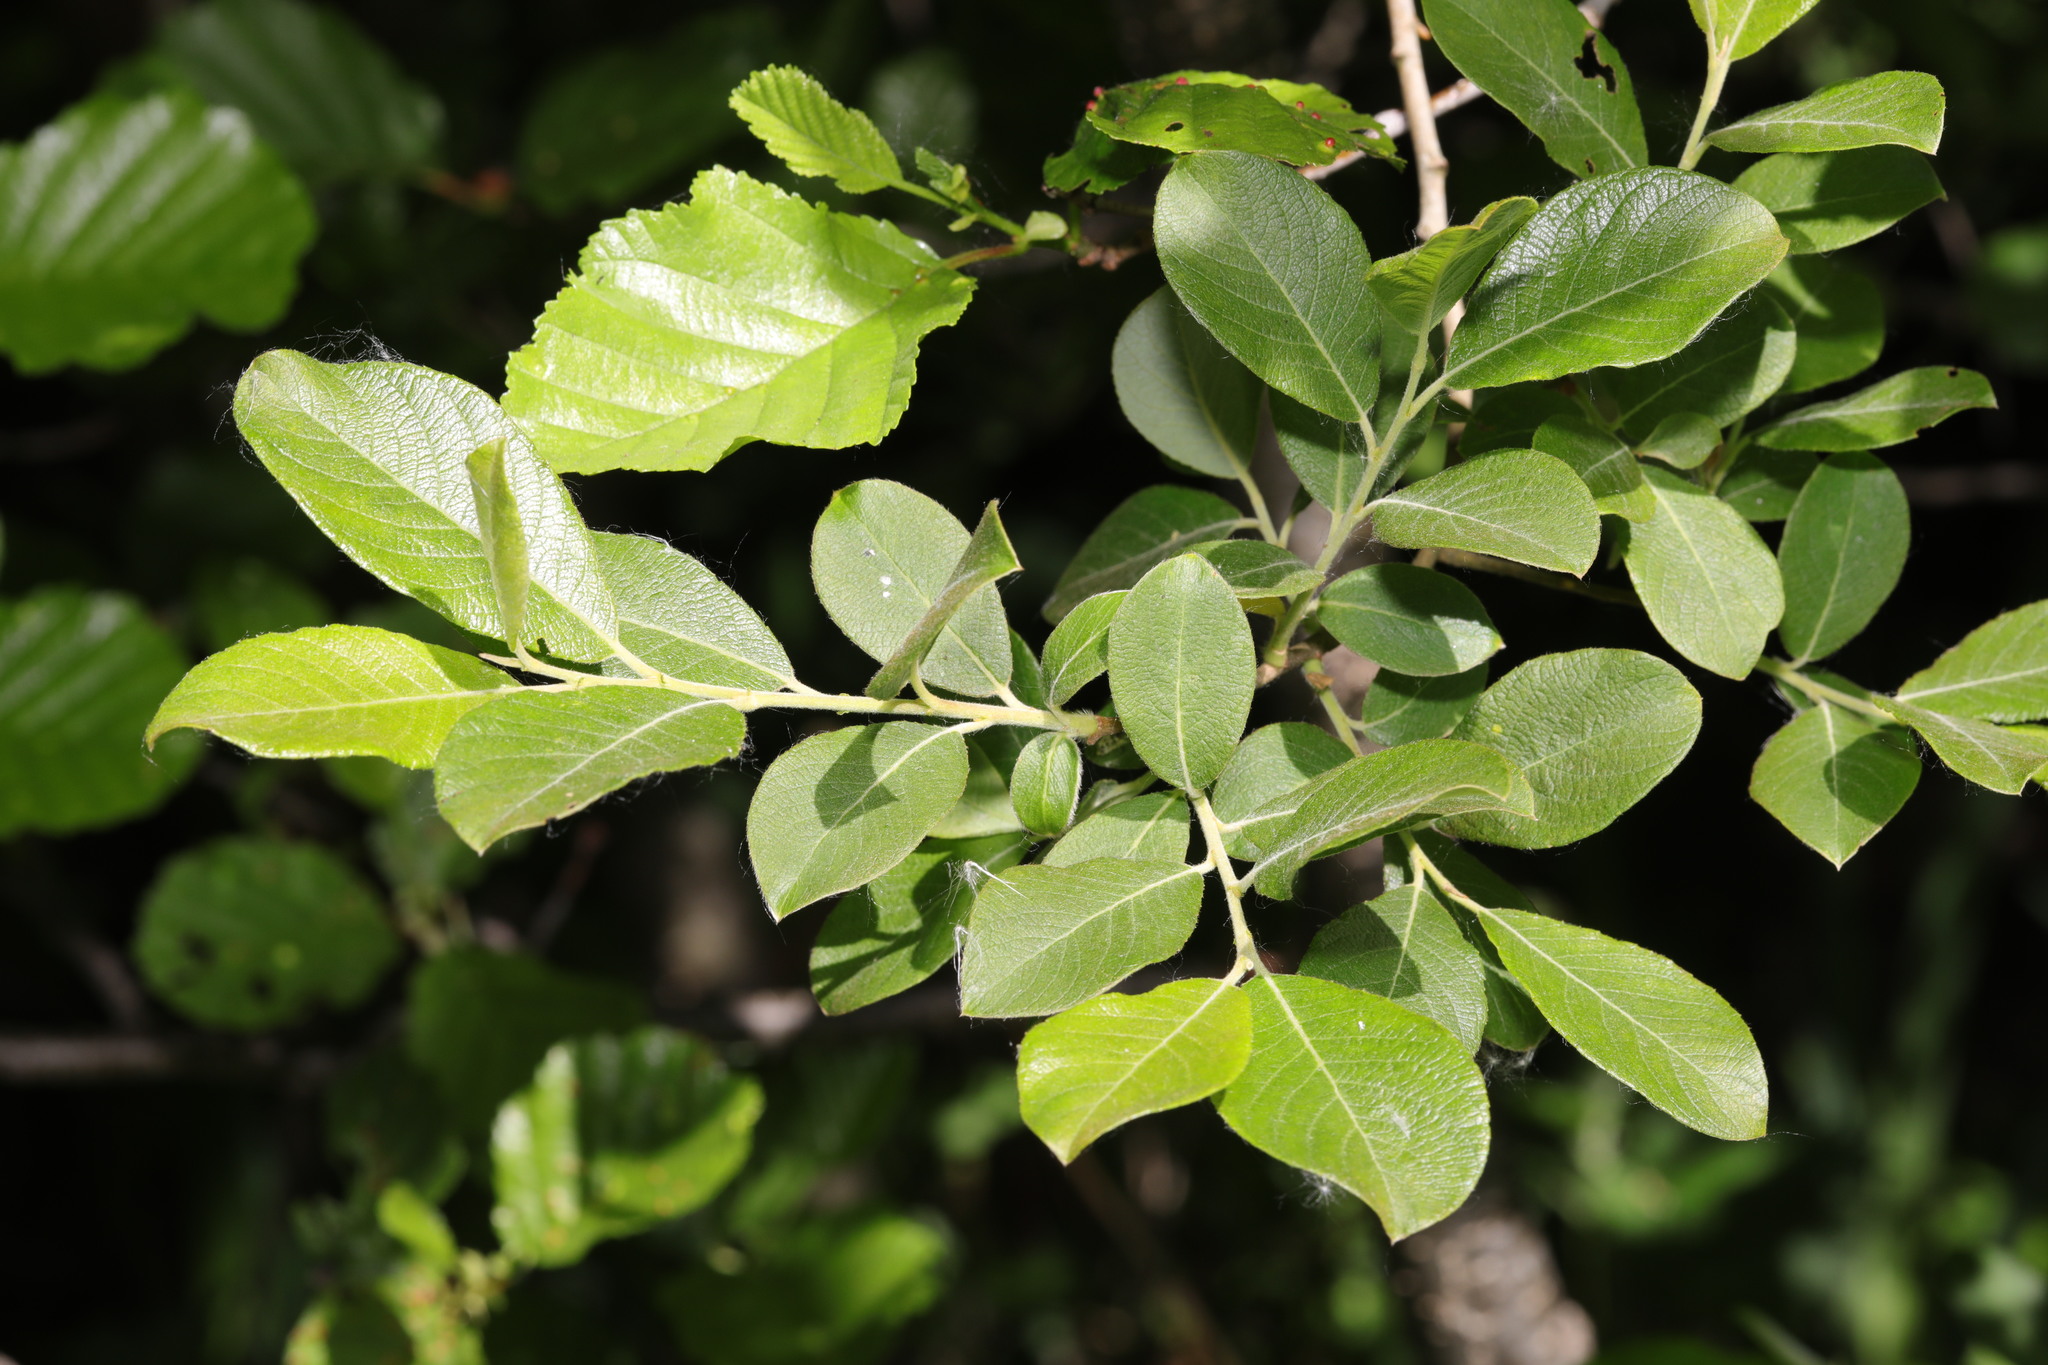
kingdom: Plantae
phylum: Tracheophyta
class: Magnoliopsida
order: Malpighiales
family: Salicaceae
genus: Salix
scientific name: Salix cinerea
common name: Common sallow
